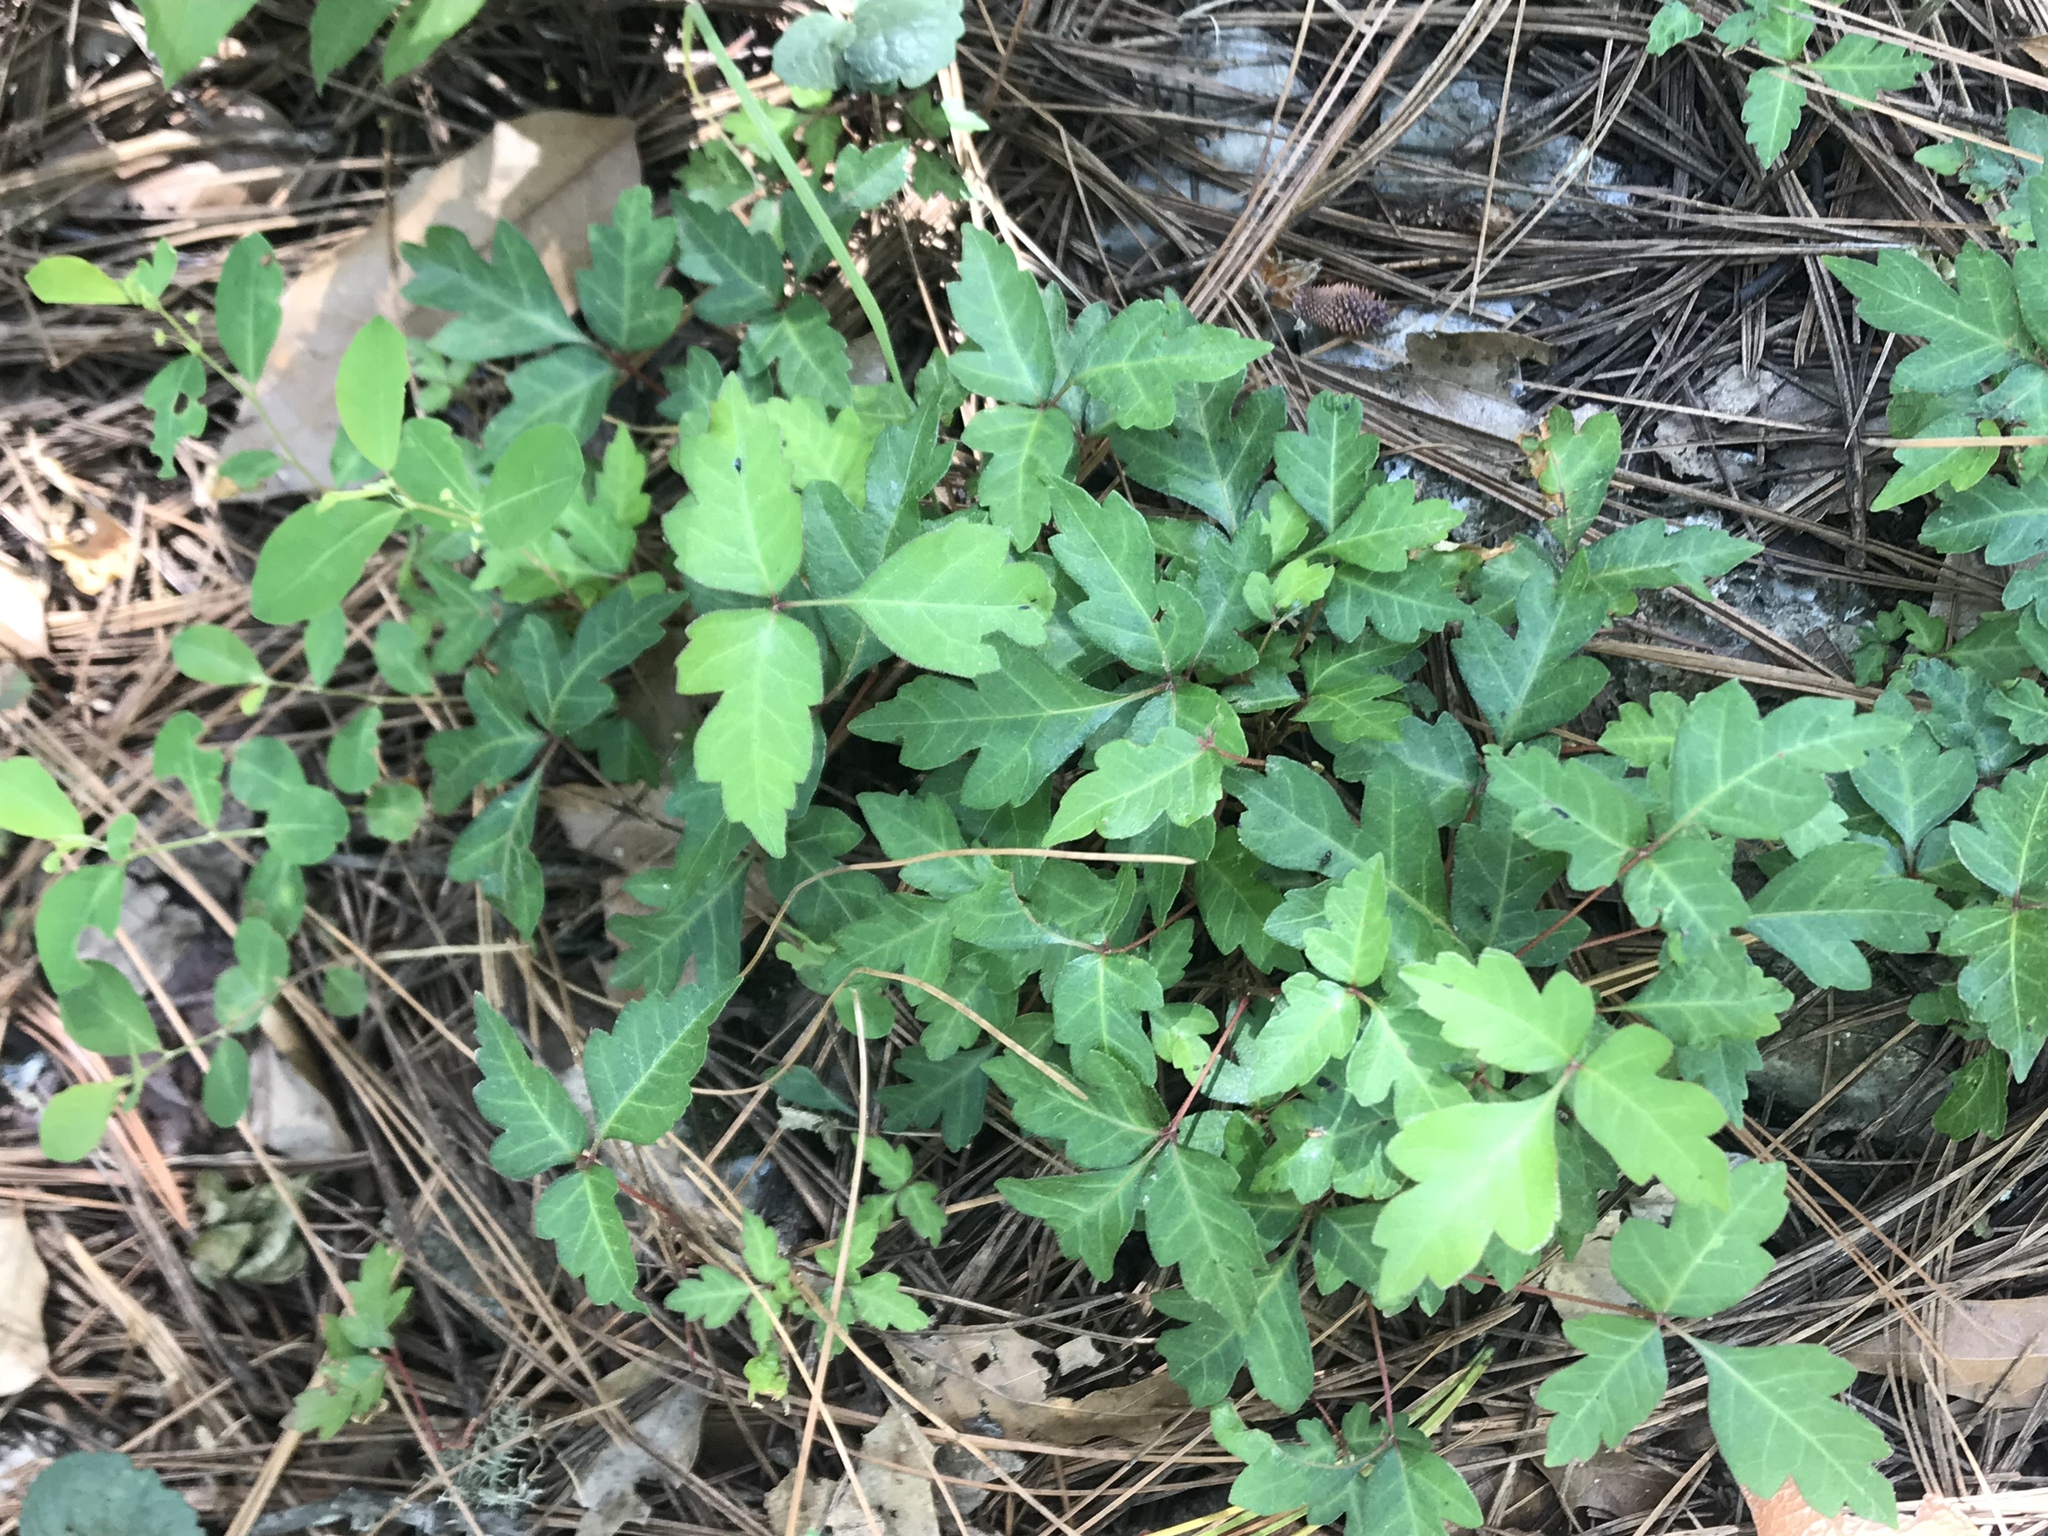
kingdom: Plantae
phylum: Tracheophyta
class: Magnoliopsida
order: Sapindales
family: Anacardiaceae
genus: Toxicodendron
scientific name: Toxicodendron radicans
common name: Poison ivy
